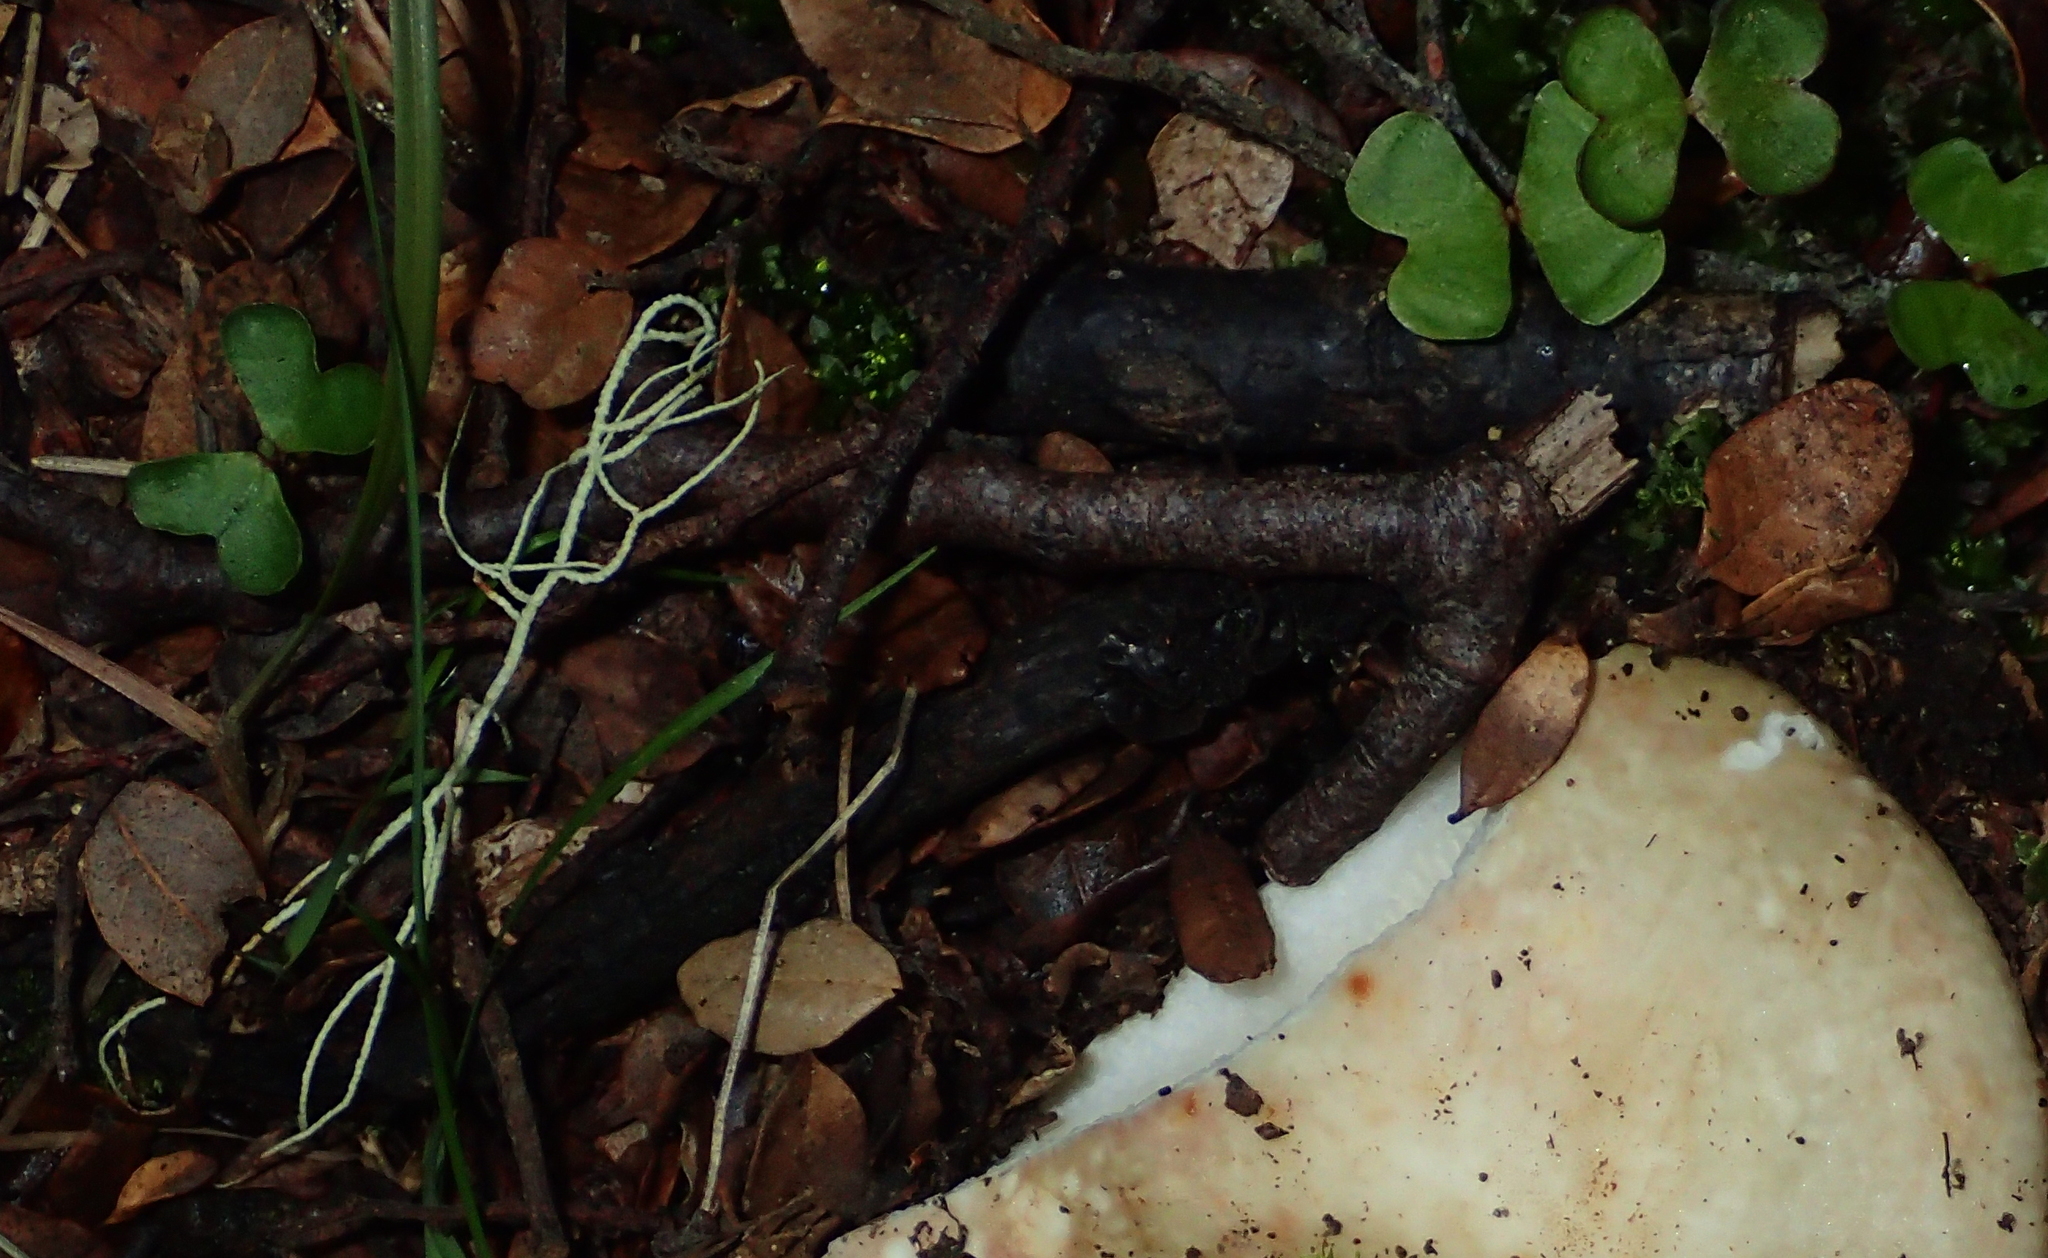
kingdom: Plantae
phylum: Tracheophyta
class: Magnoliopsida
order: Fagales
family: Nothofagaceae
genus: Nothofagus
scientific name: Nothofagus solandri
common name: Black beech
